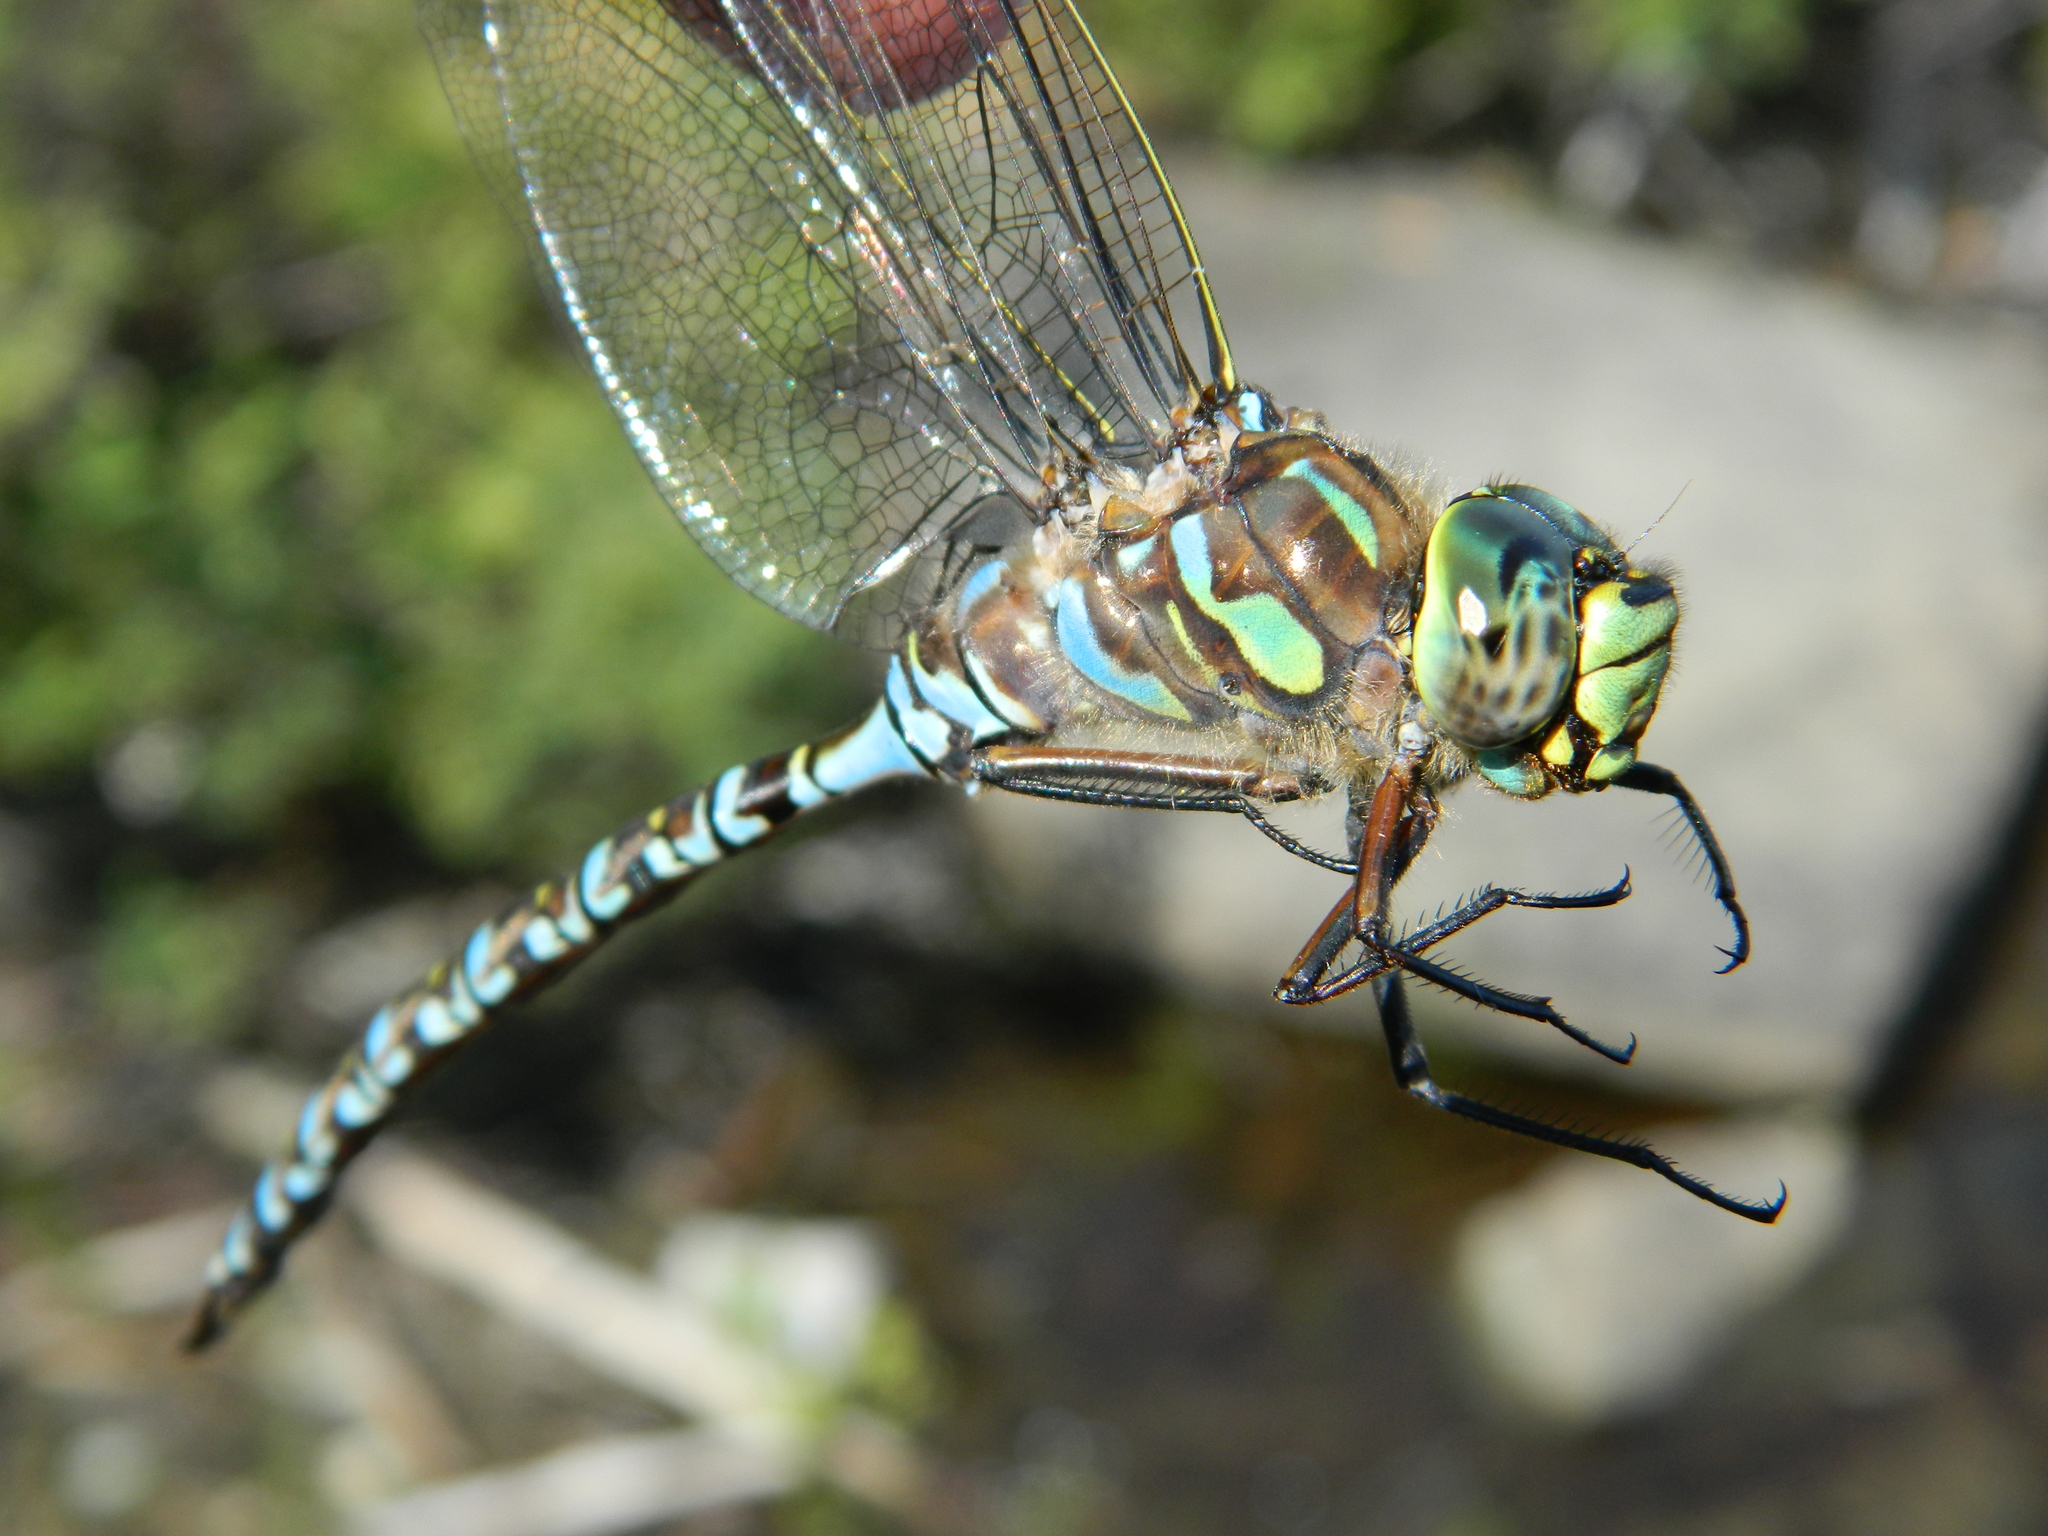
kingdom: Animalia
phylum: Arthropoda
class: Insecta
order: Odonata
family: Aeshnidae
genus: Aeshna
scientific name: Aeshna eremita
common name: Lake darner
